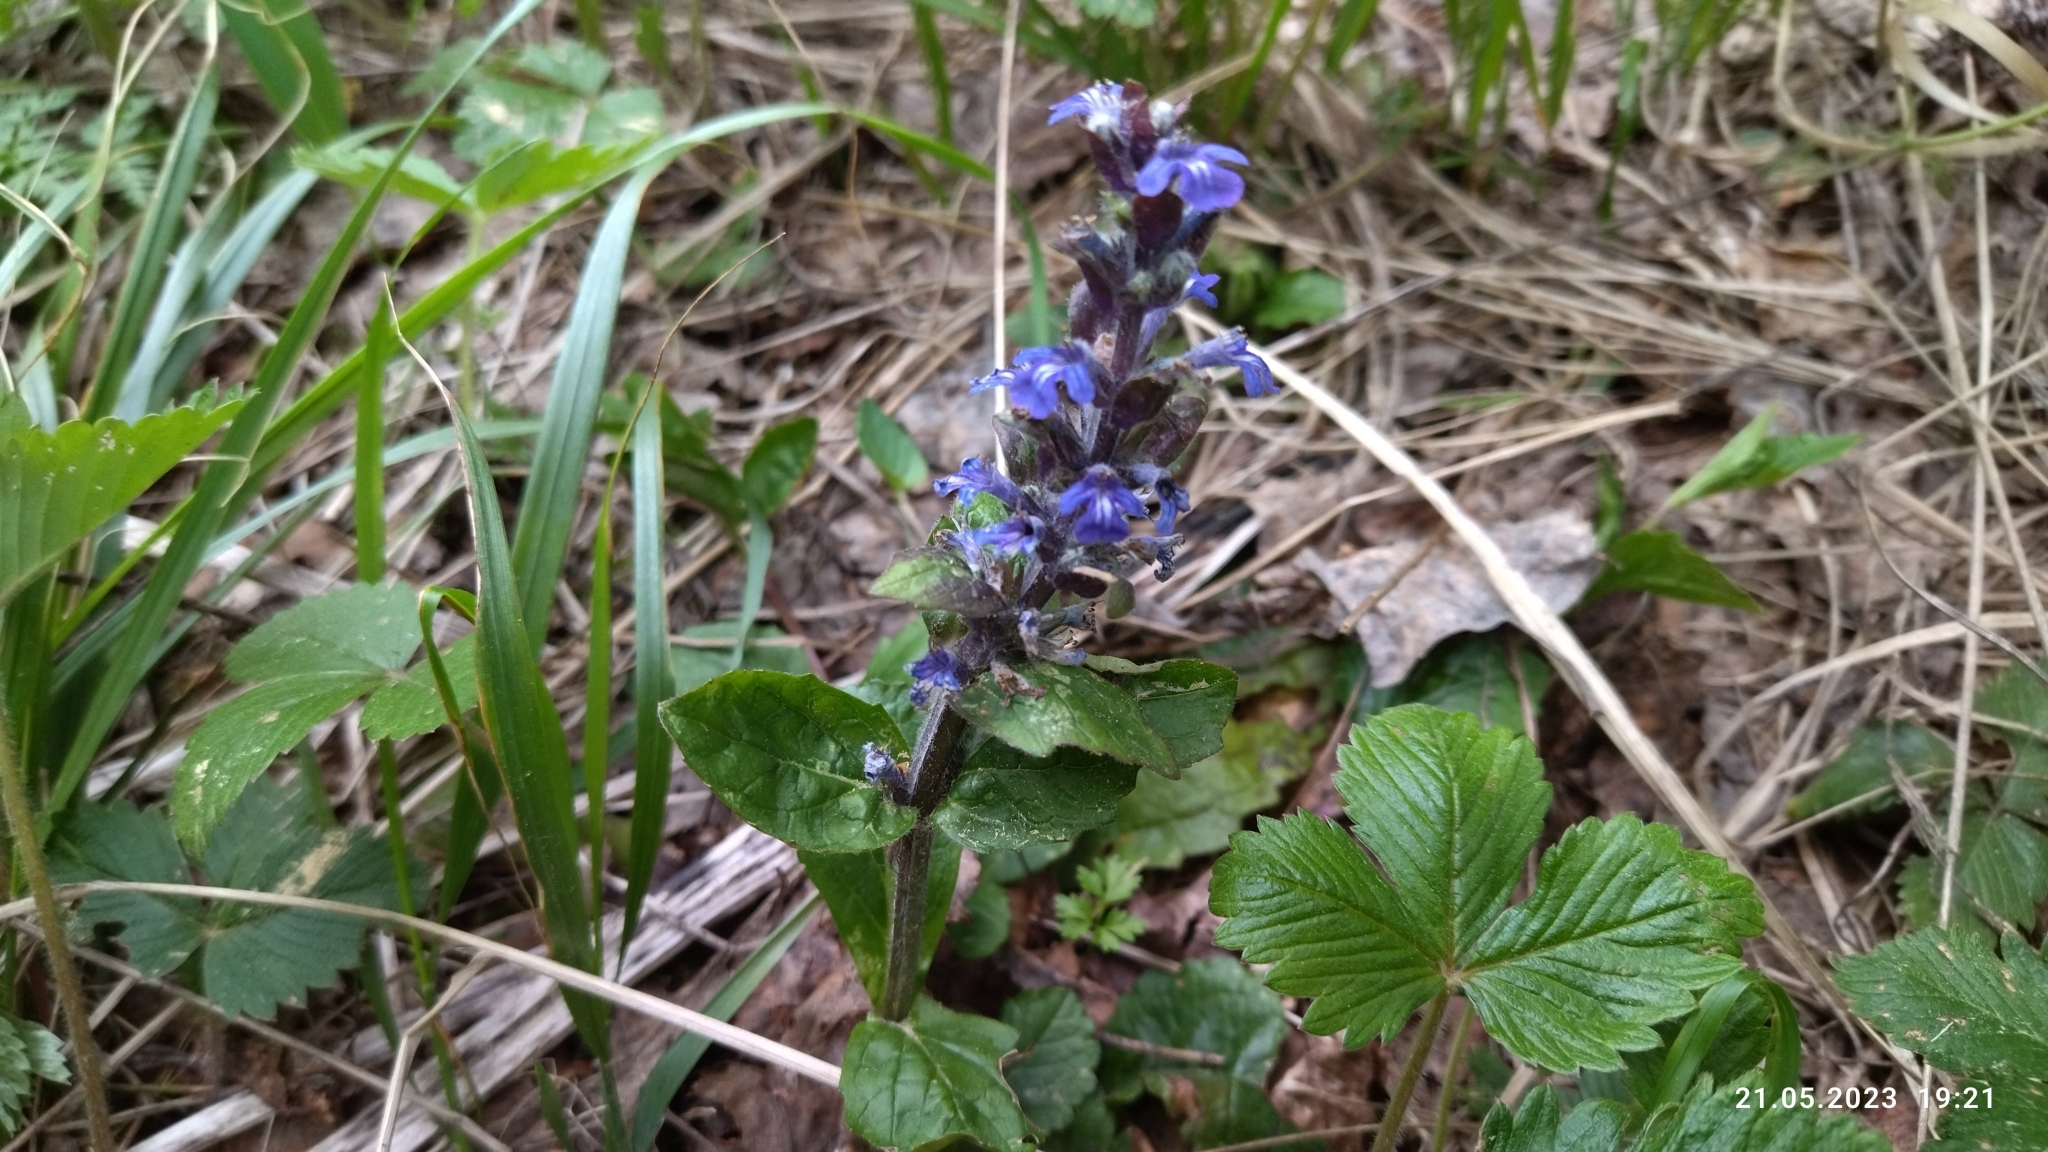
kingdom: Plantae
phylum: Tracheophyta
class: Magnoliopsida
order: Lamiales
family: Lamiaceae
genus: Ajuga
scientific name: Ajuga reptans
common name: Bugle
